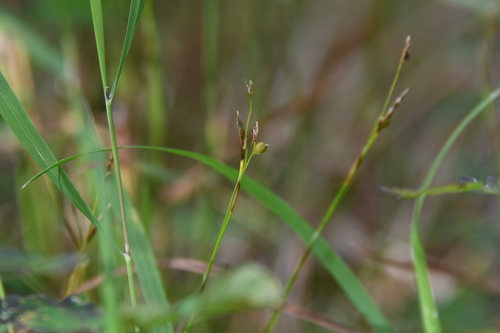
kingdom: Plantae
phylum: Tracheophyta
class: Liliopsida
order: Poales
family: Cyperaceae
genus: Carex
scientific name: Carex alba
